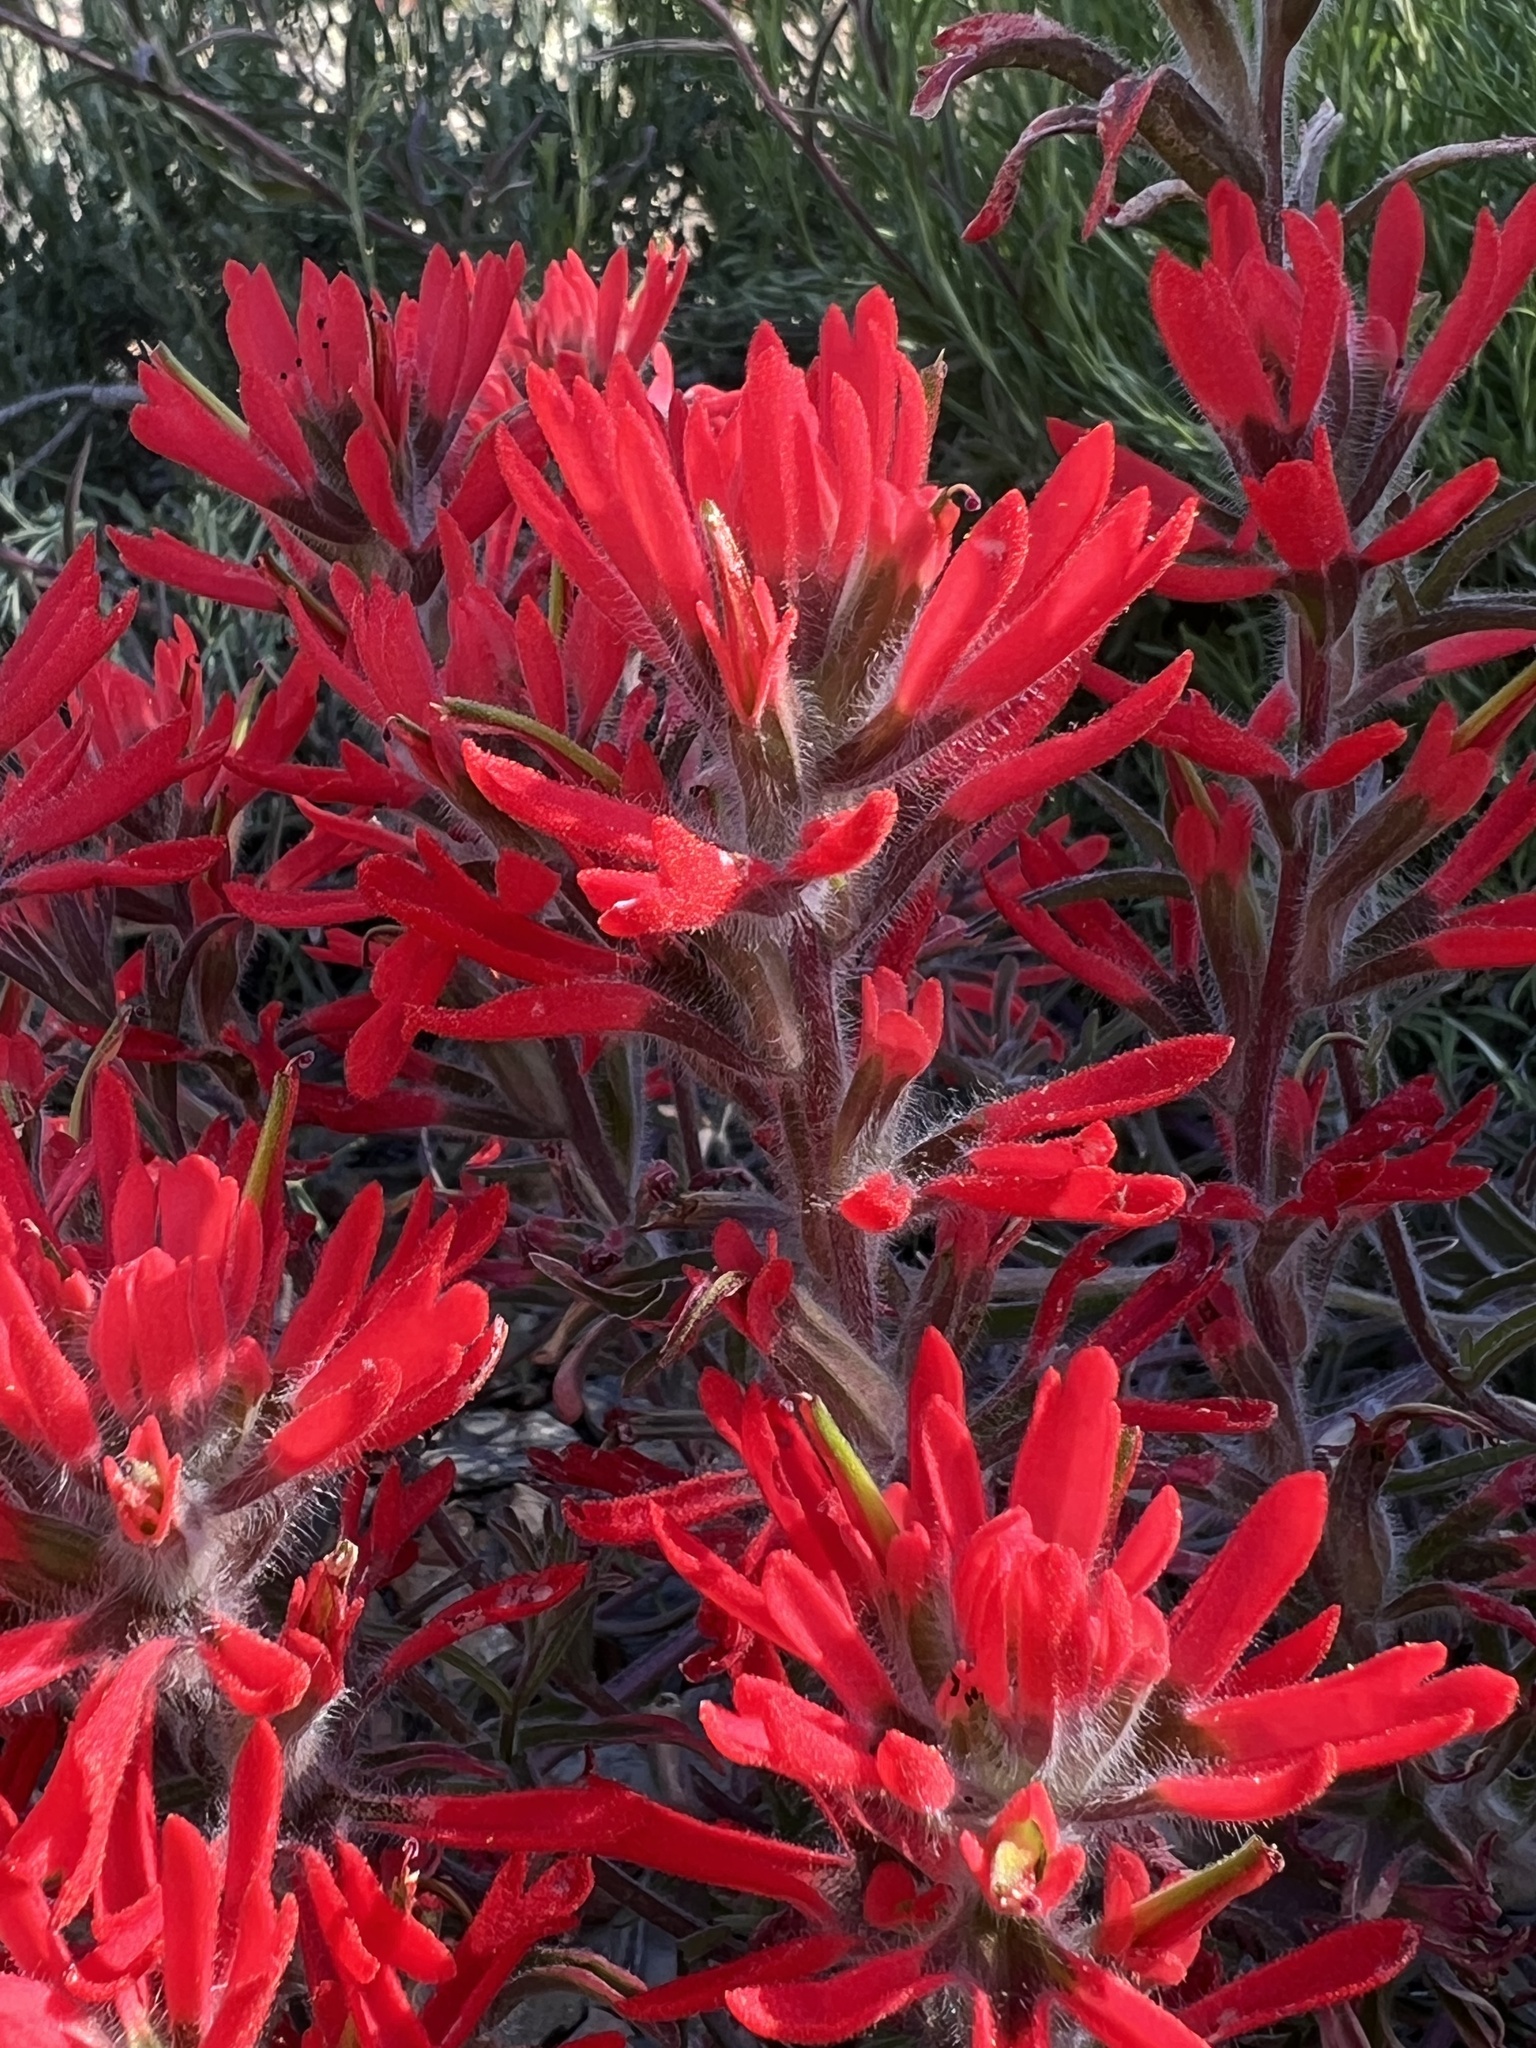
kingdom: Plantae
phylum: Tracheophyta
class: Magnoliopsida
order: Lamiales
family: Orobanchaceae
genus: Castilleja
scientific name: Castilleja chromosa
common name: Desert paintbrush
